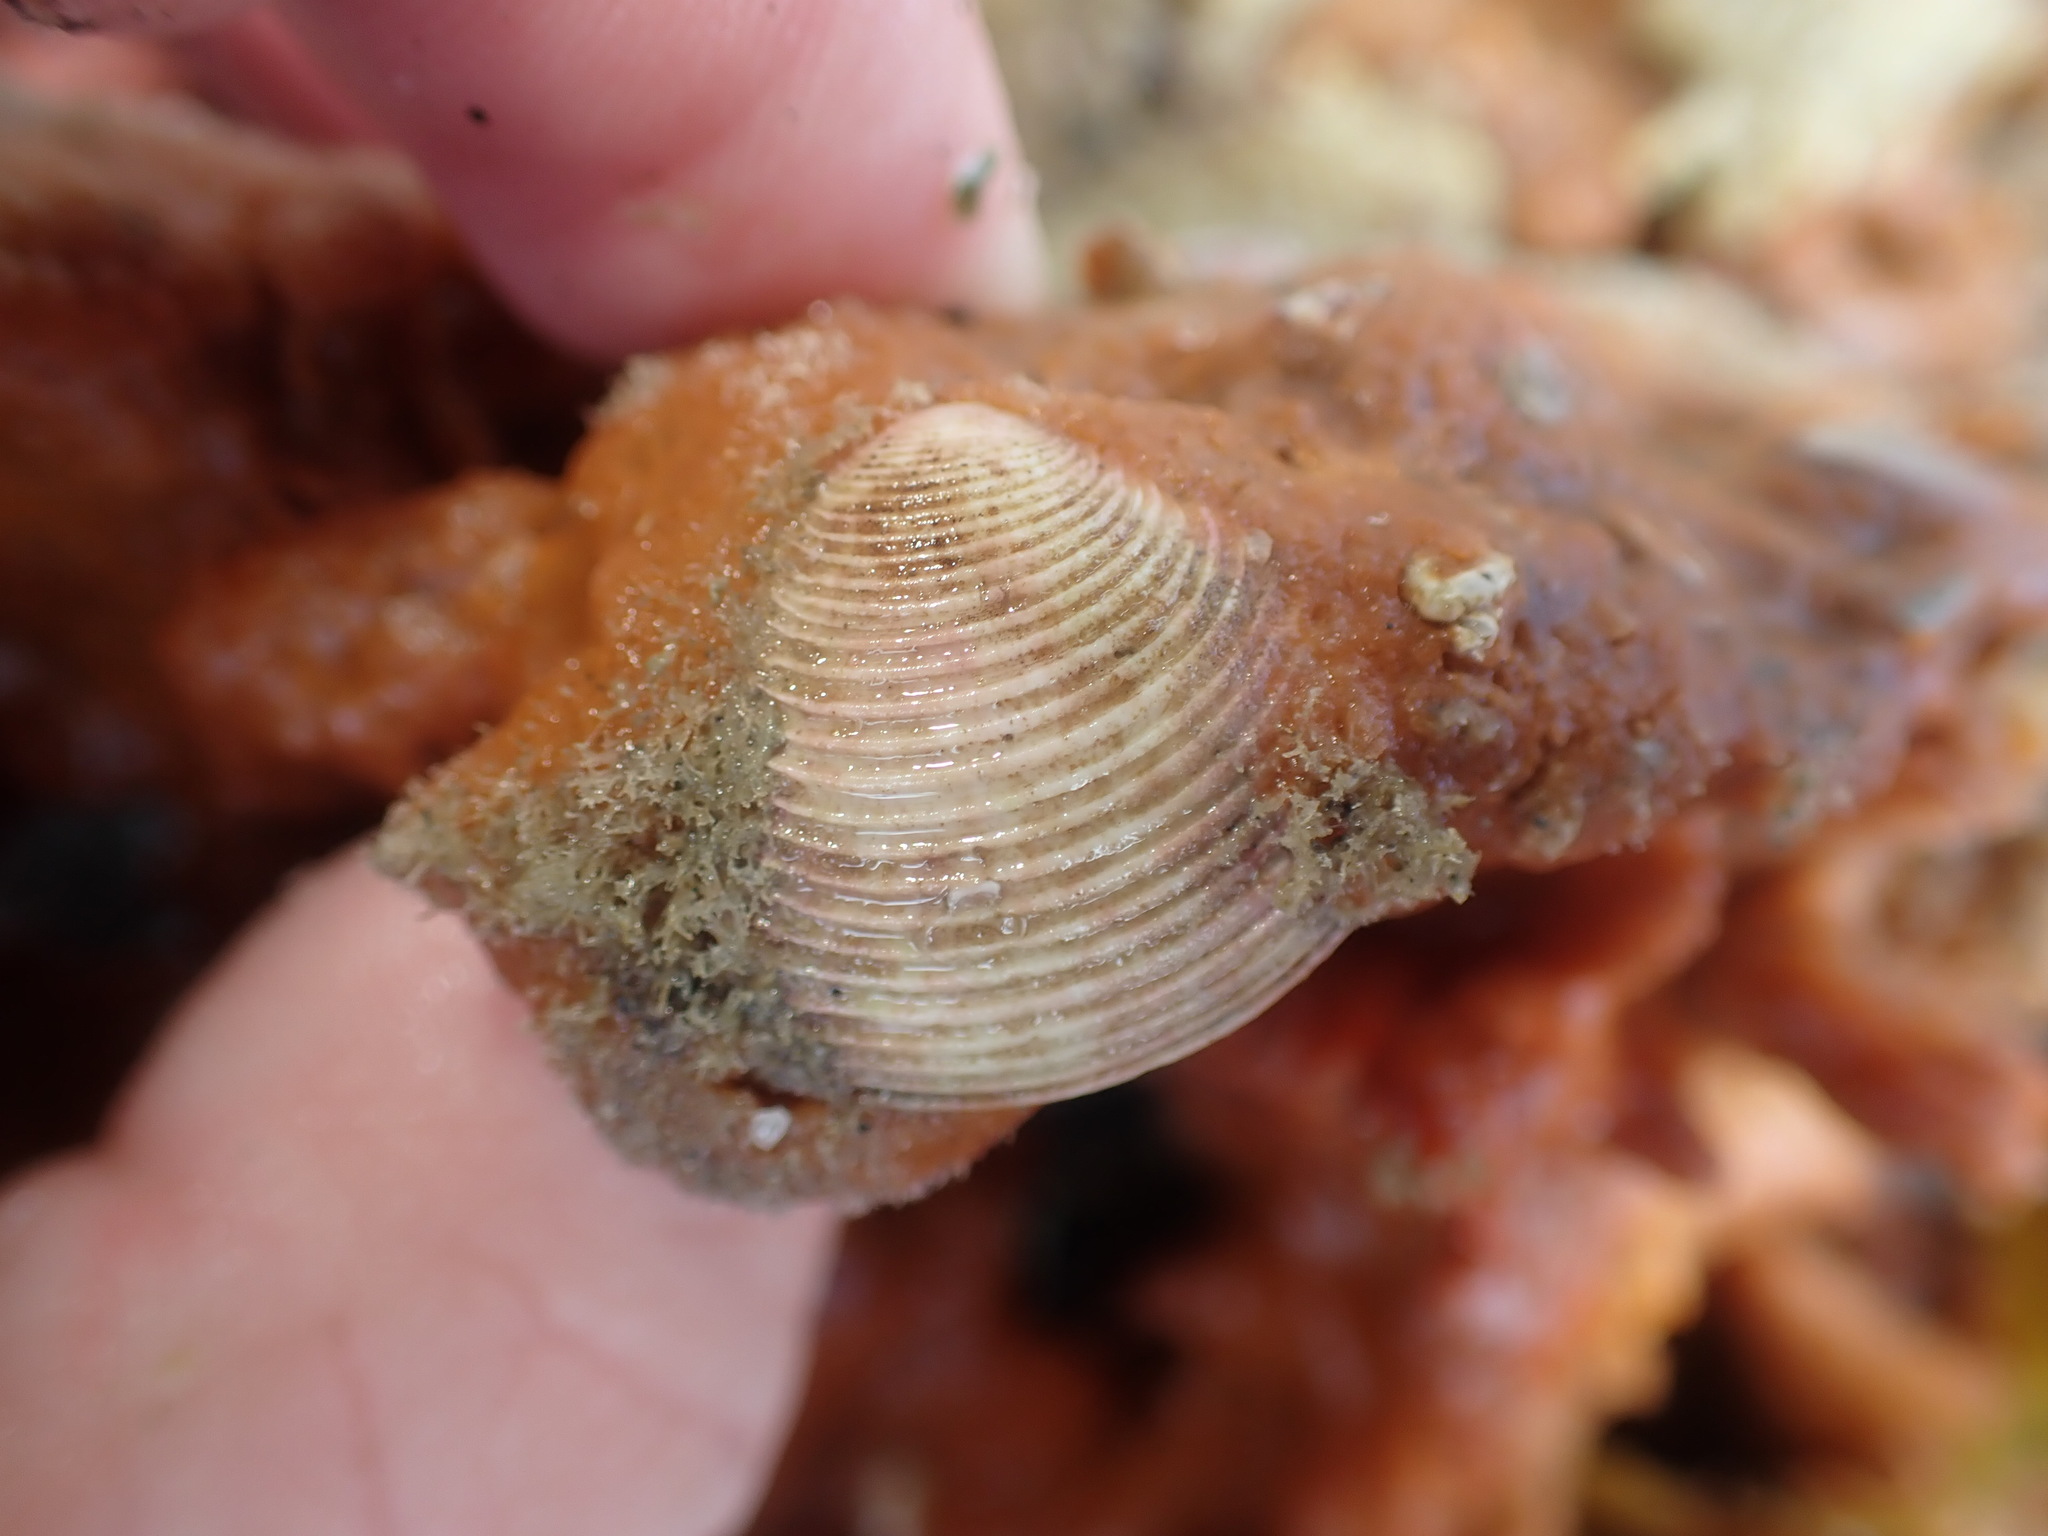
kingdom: Animalia
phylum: Mollusca
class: Bivalvia
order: Venerida
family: Veneridae
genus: Tawera
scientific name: Tawera spissa
